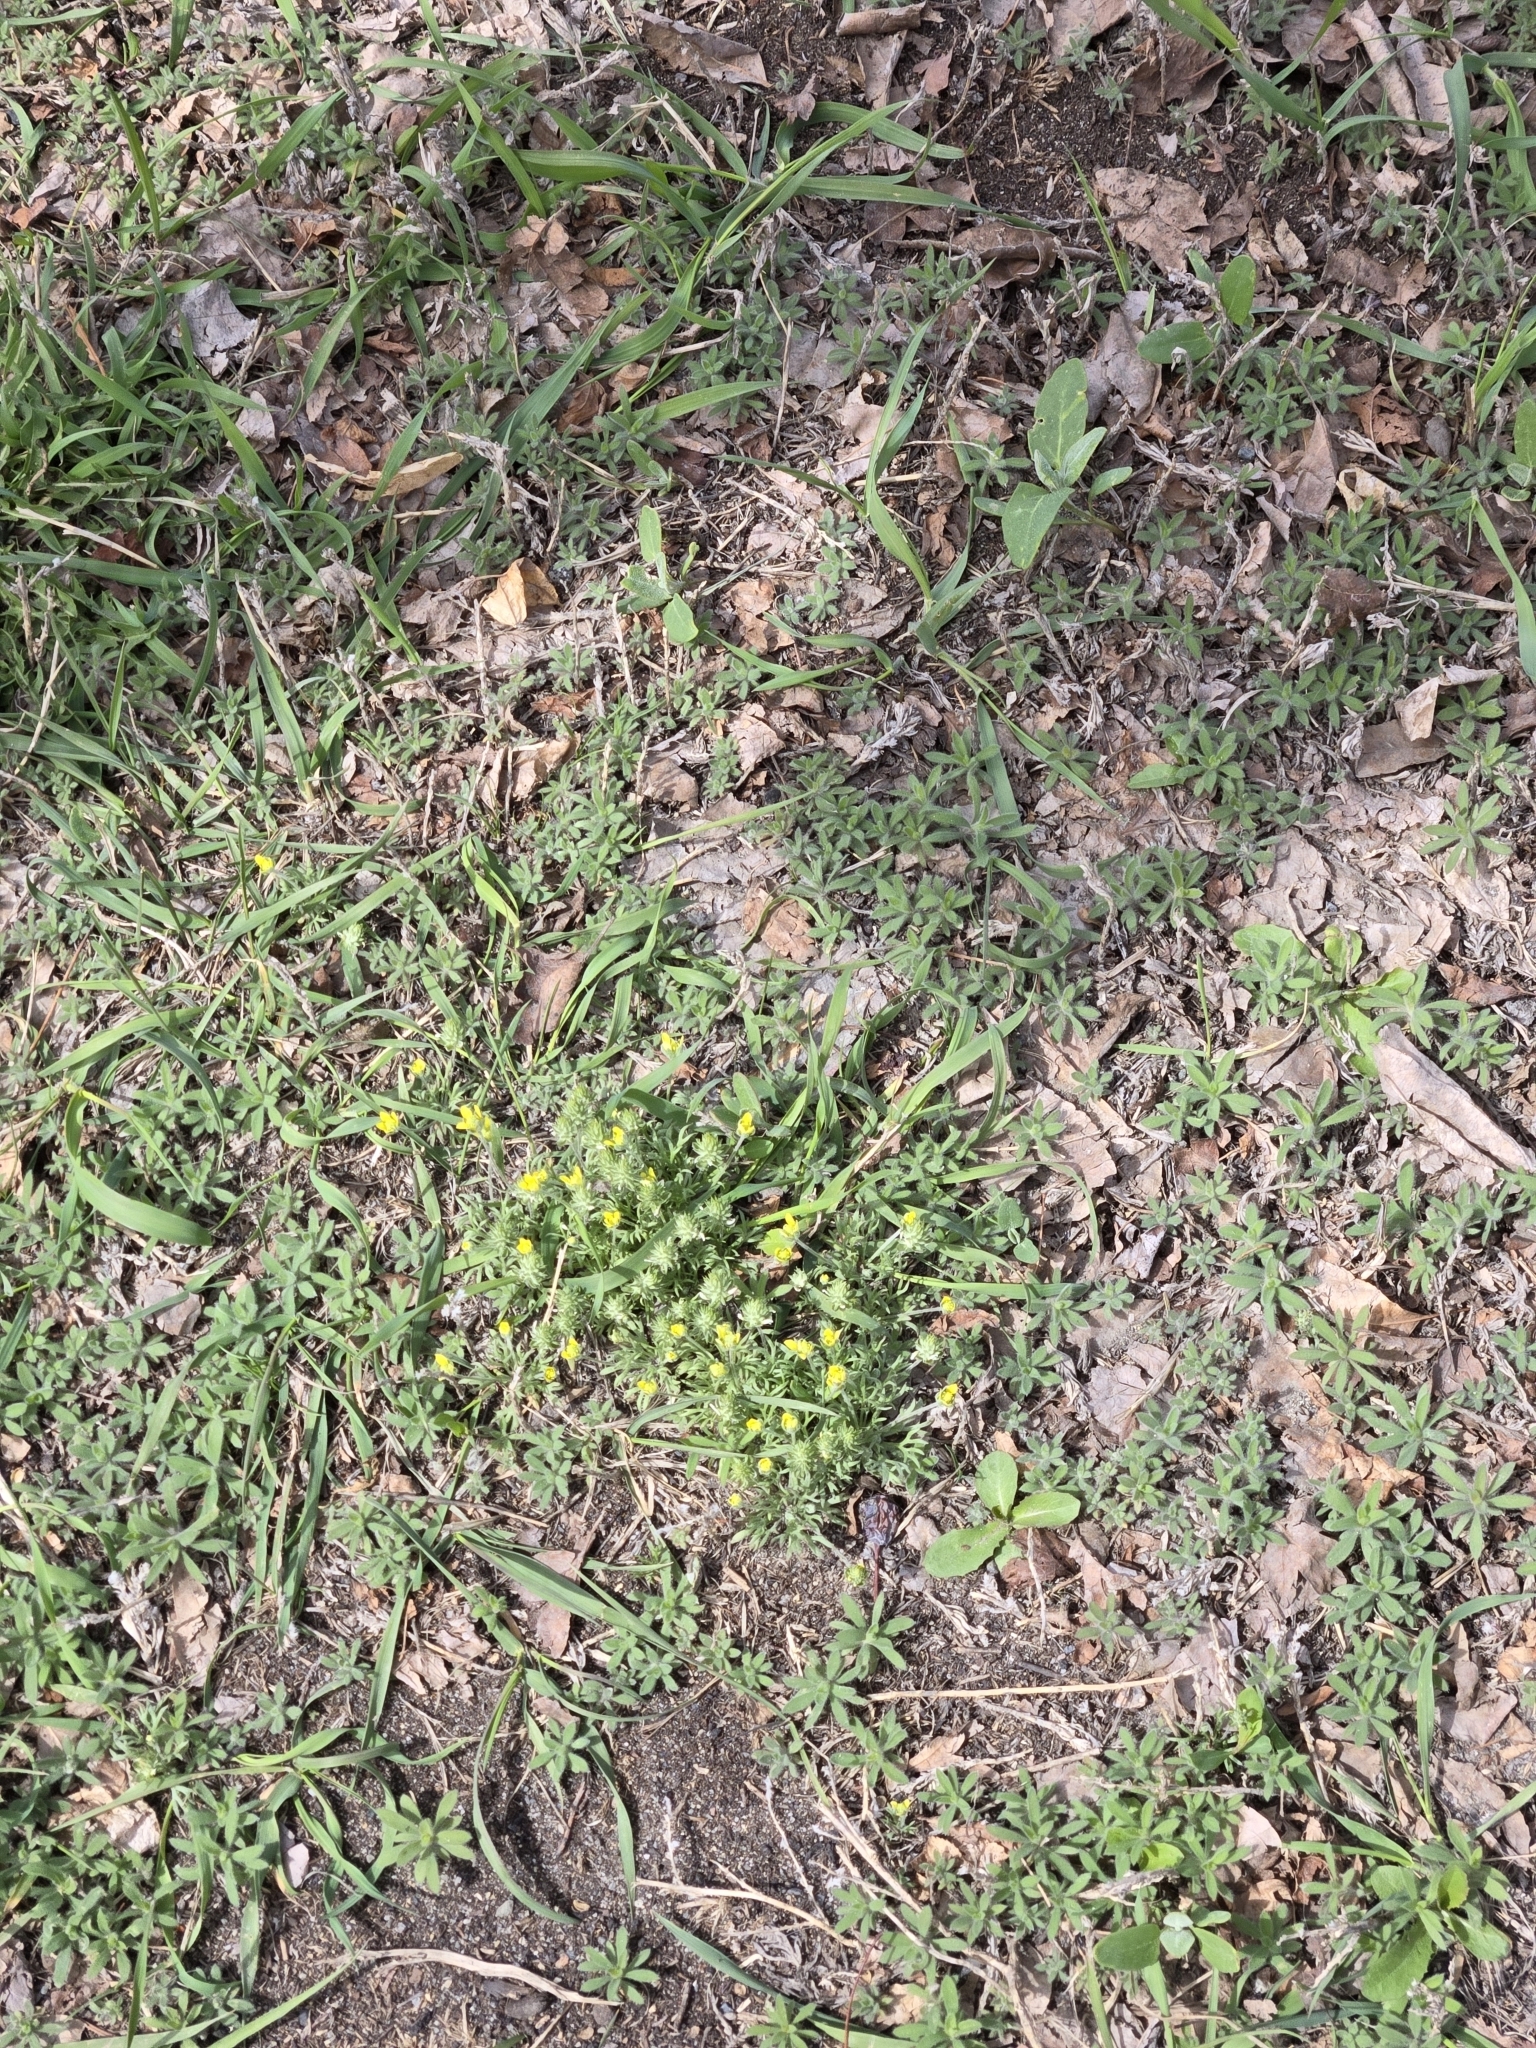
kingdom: Plantae
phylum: Tracheophyta
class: Magnoliopsida
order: Ranunculales
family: Ranunculaceae
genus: Ceratocephala
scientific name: Ceratocephala orthoceras
